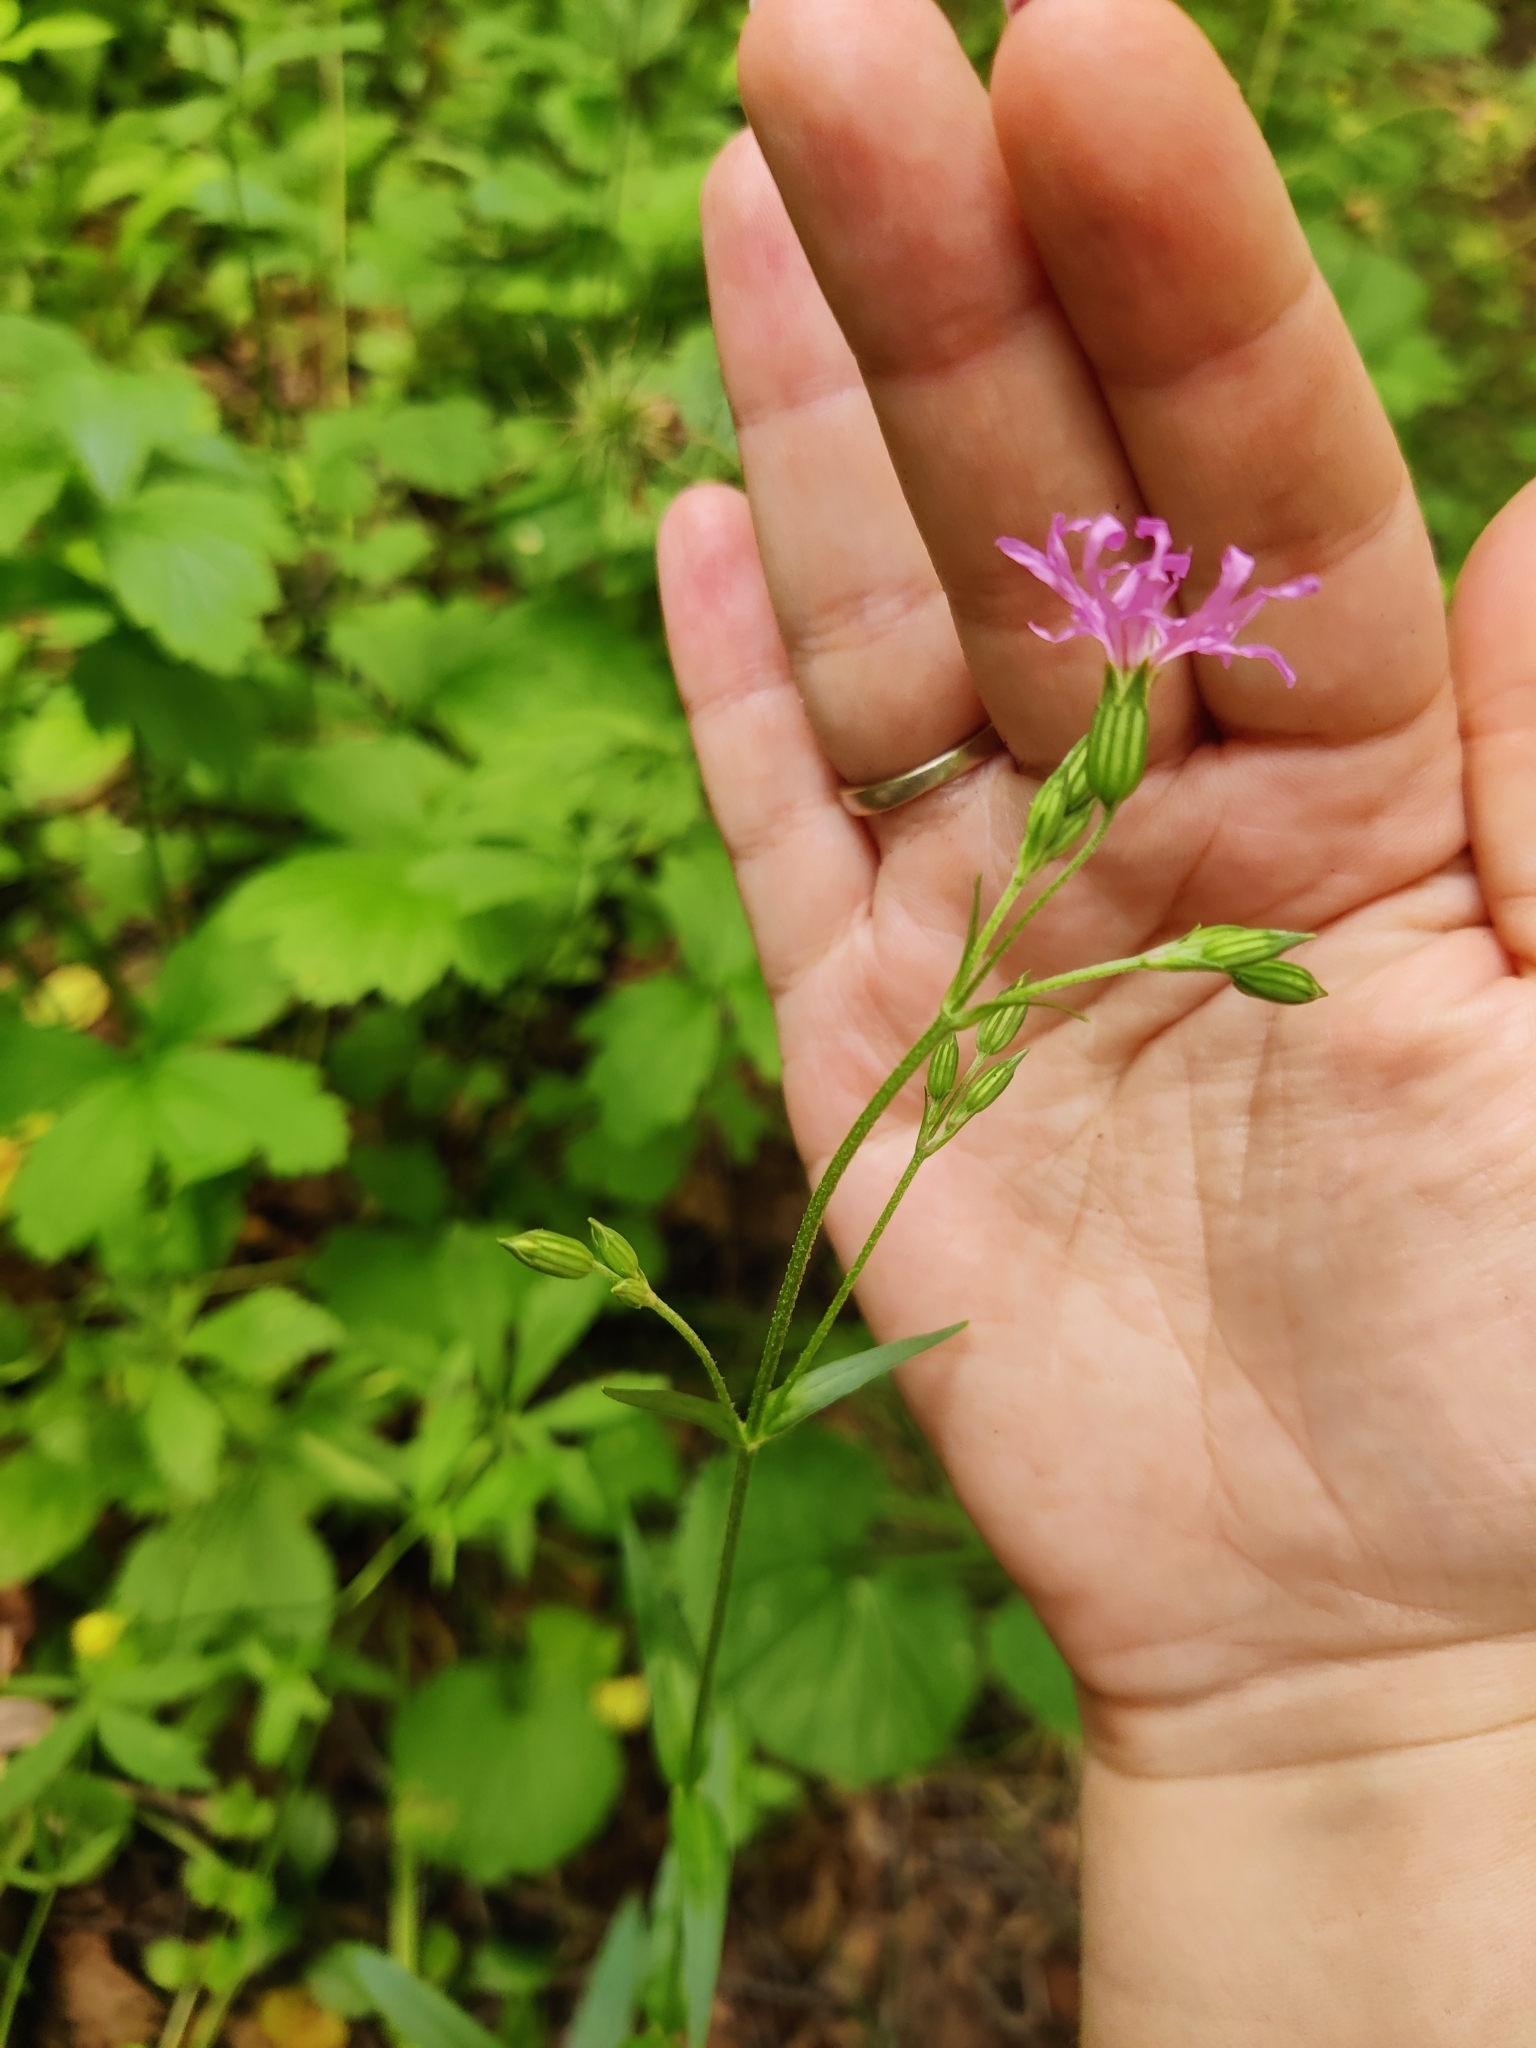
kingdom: Plantae
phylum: Tracheophyta
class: Magnoliopsida
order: Caryophyllales
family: Caryophyllaceae
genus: Silene
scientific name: Silene flos-cuculi
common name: Ragged-robin
